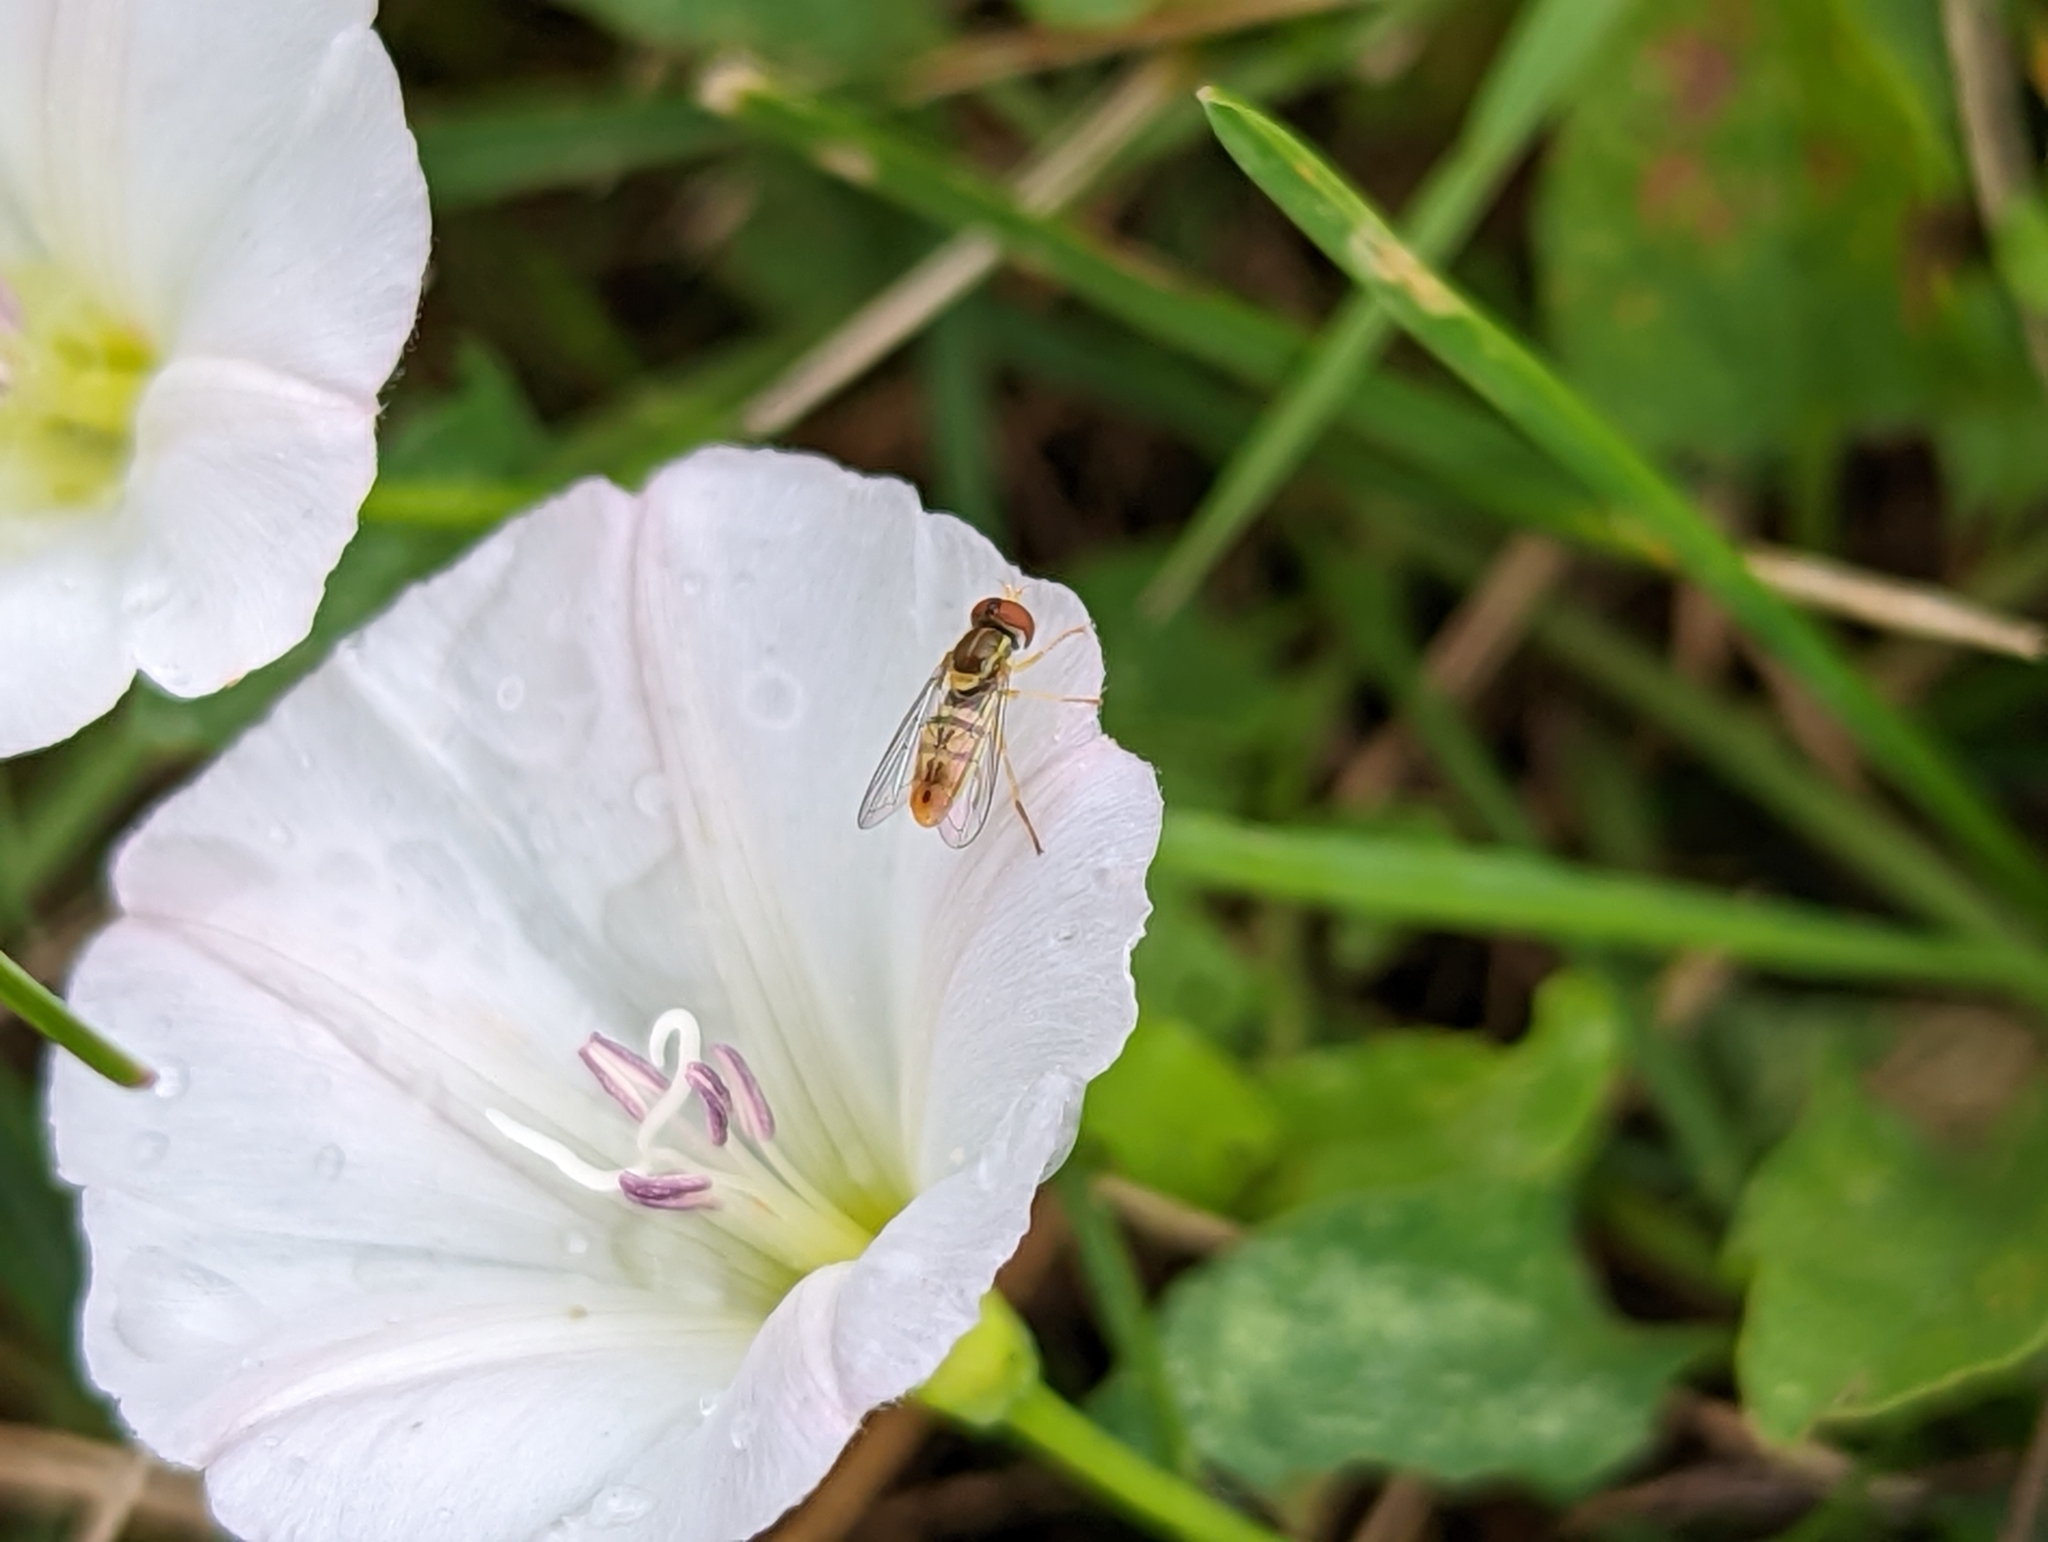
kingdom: Animalia
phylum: Arthropoda
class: Insecta
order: Diptera
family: Syrphidae
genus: Toxomerus
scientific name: Toxomerus marginatus
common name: Syrphid fly
